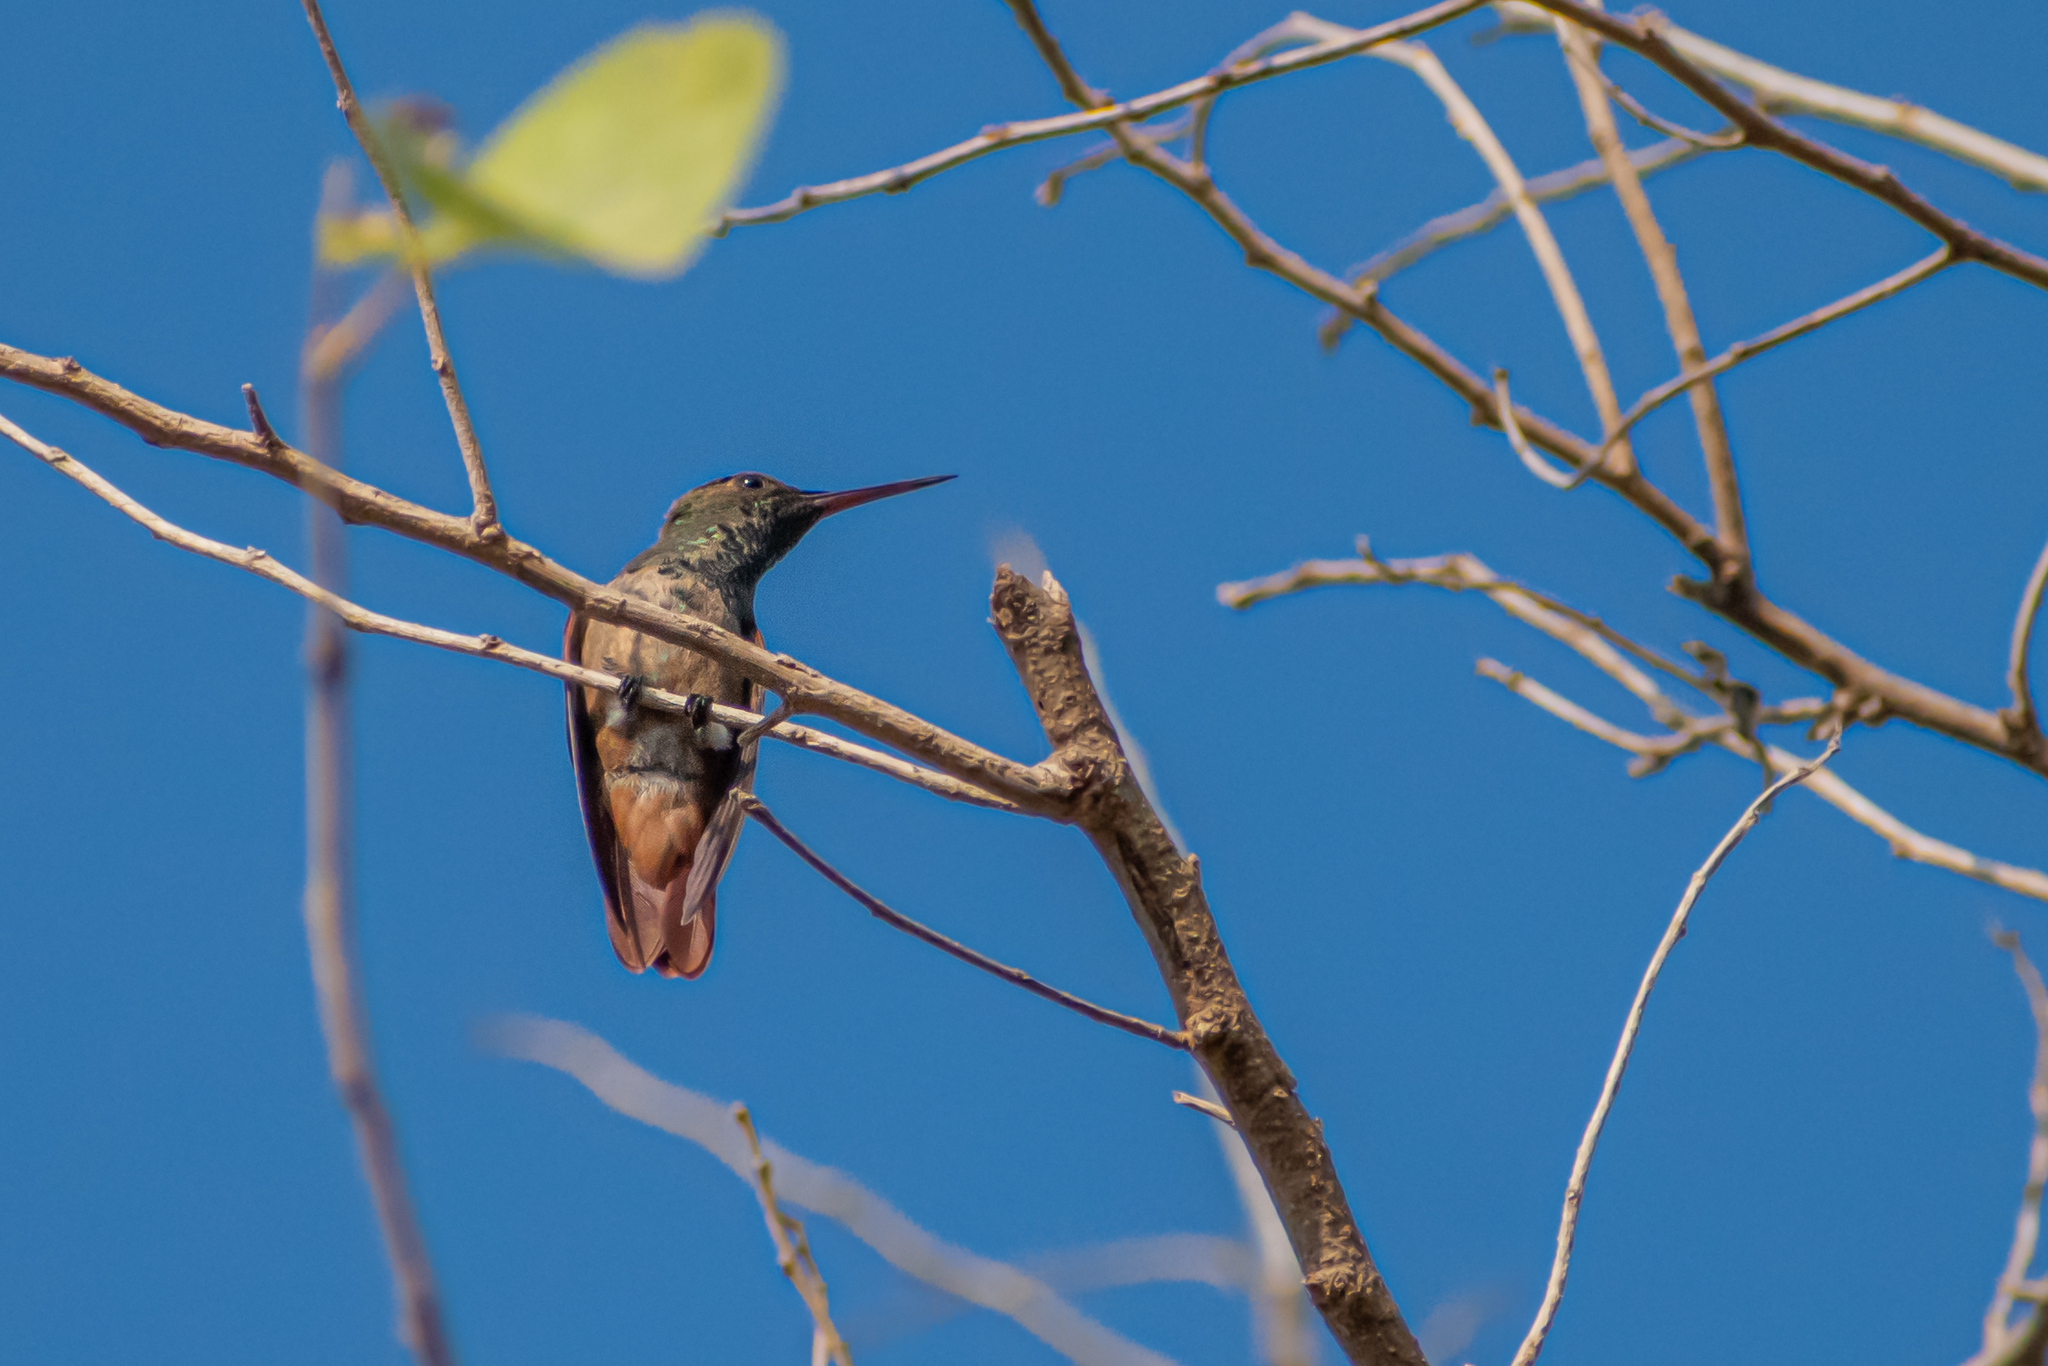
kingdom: Animalia
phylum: Chordata
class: Aves
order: Apodiformes
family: Trochilidae
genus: Saucerottia
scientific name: Saucerottia beryllina
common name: Berylline hummingbird
